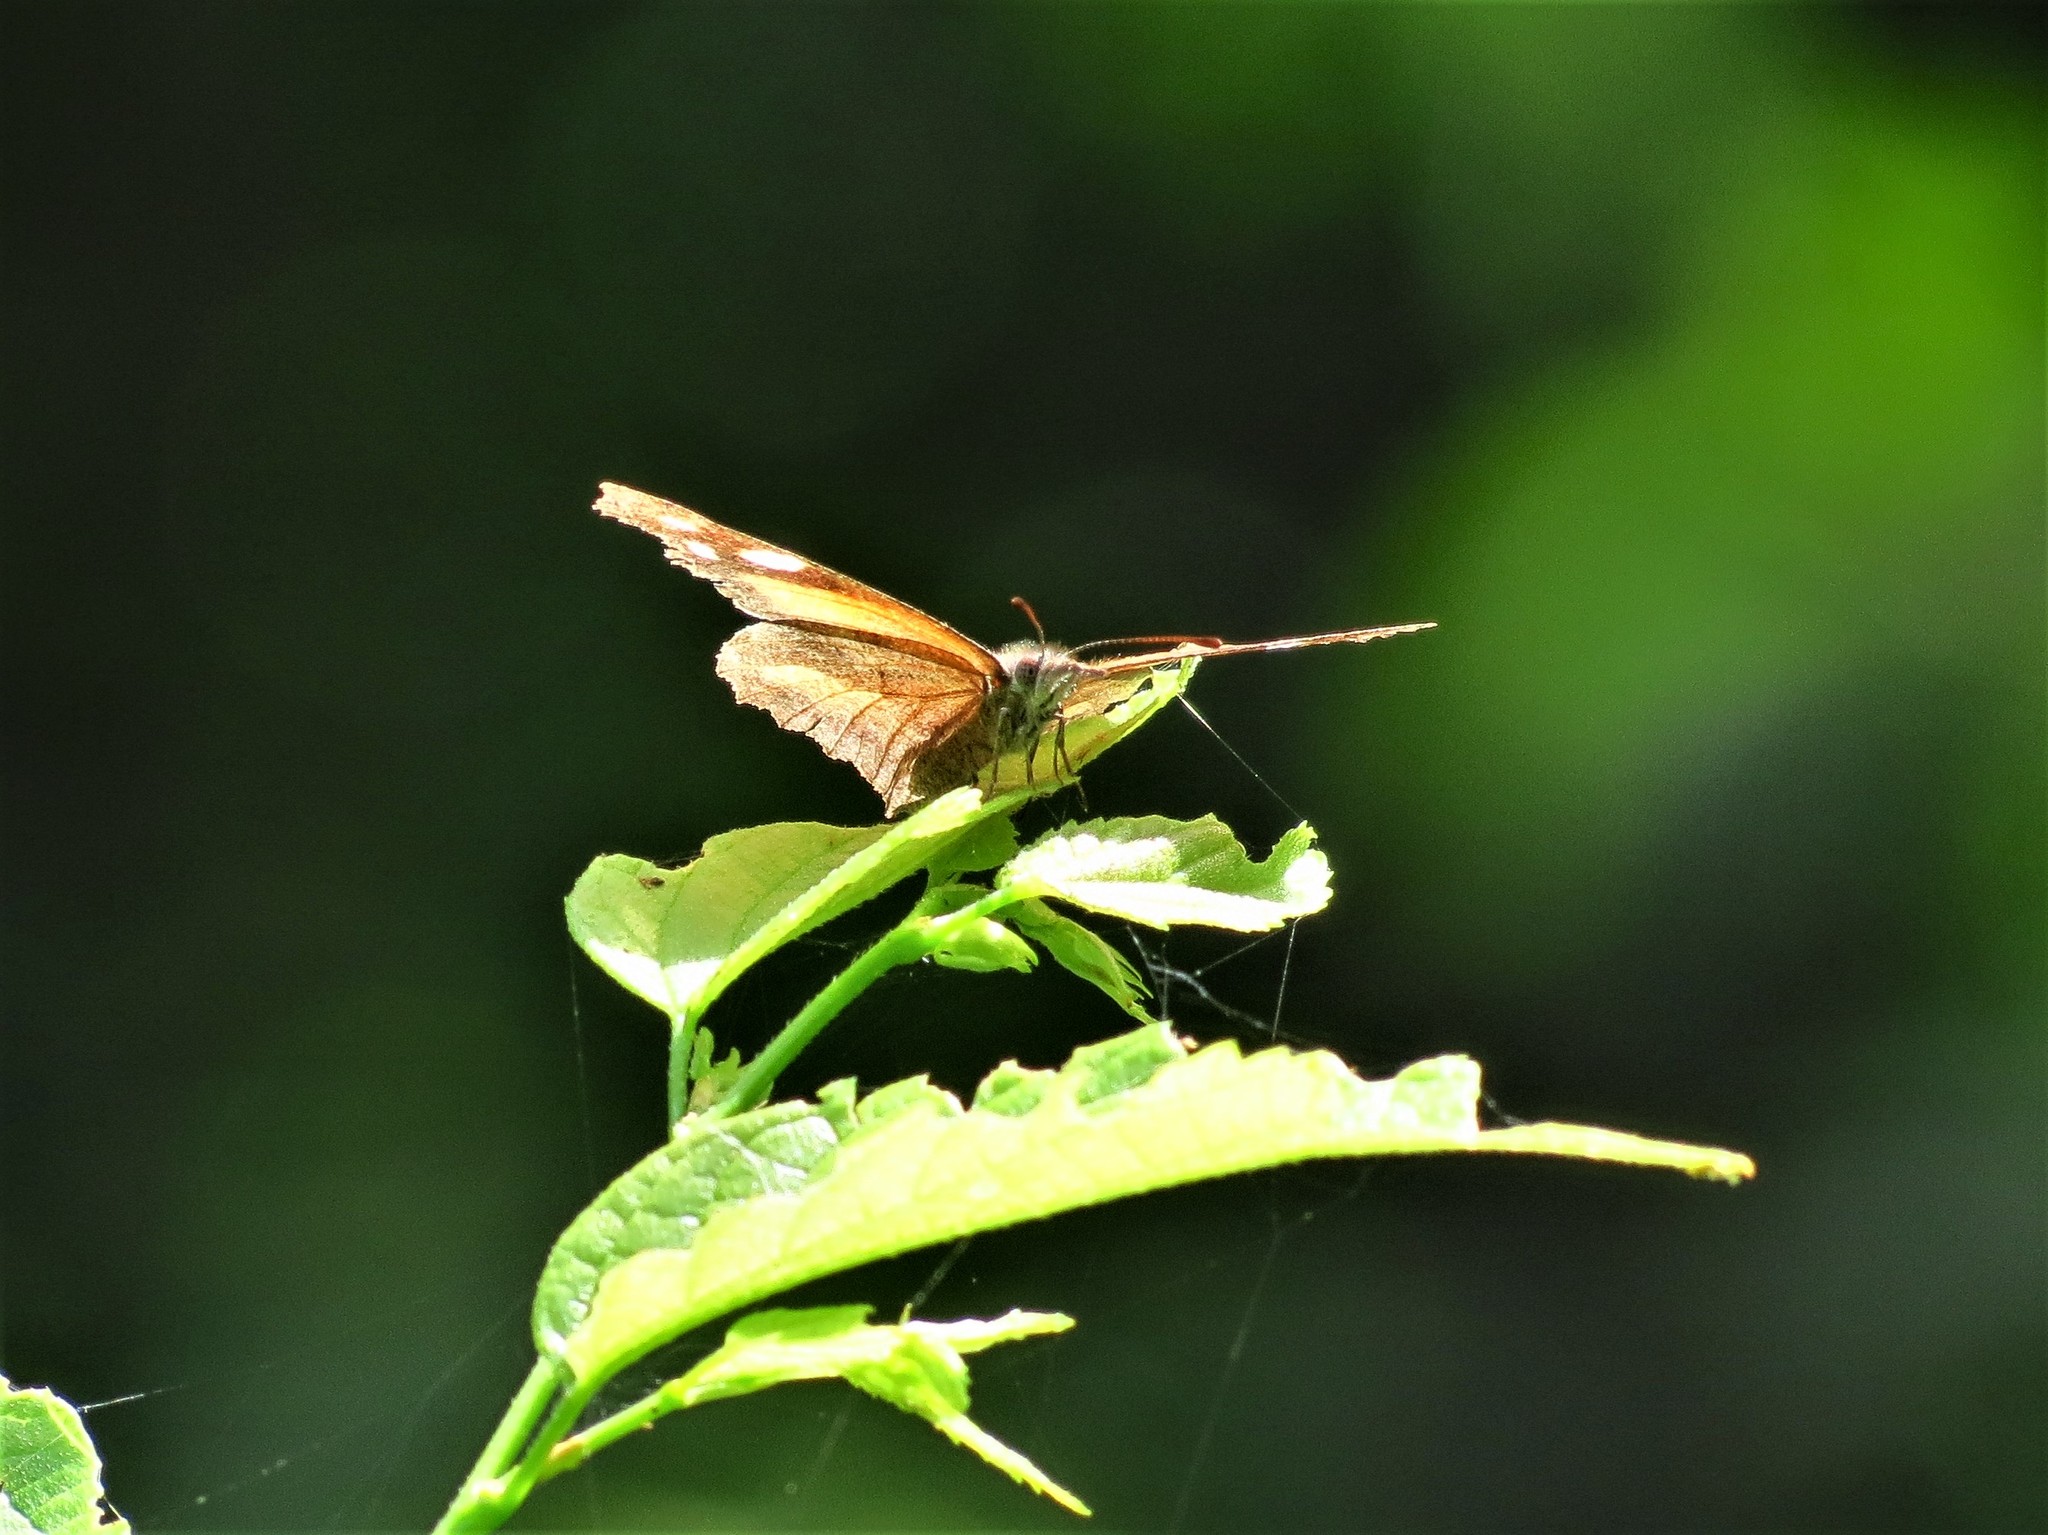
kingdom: Animalia
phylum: Arthropoda
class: Insecta
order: Lepidoptera
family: Nymphalidae
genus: Libytheana
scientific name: Libytheana carinenta
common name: American snout
